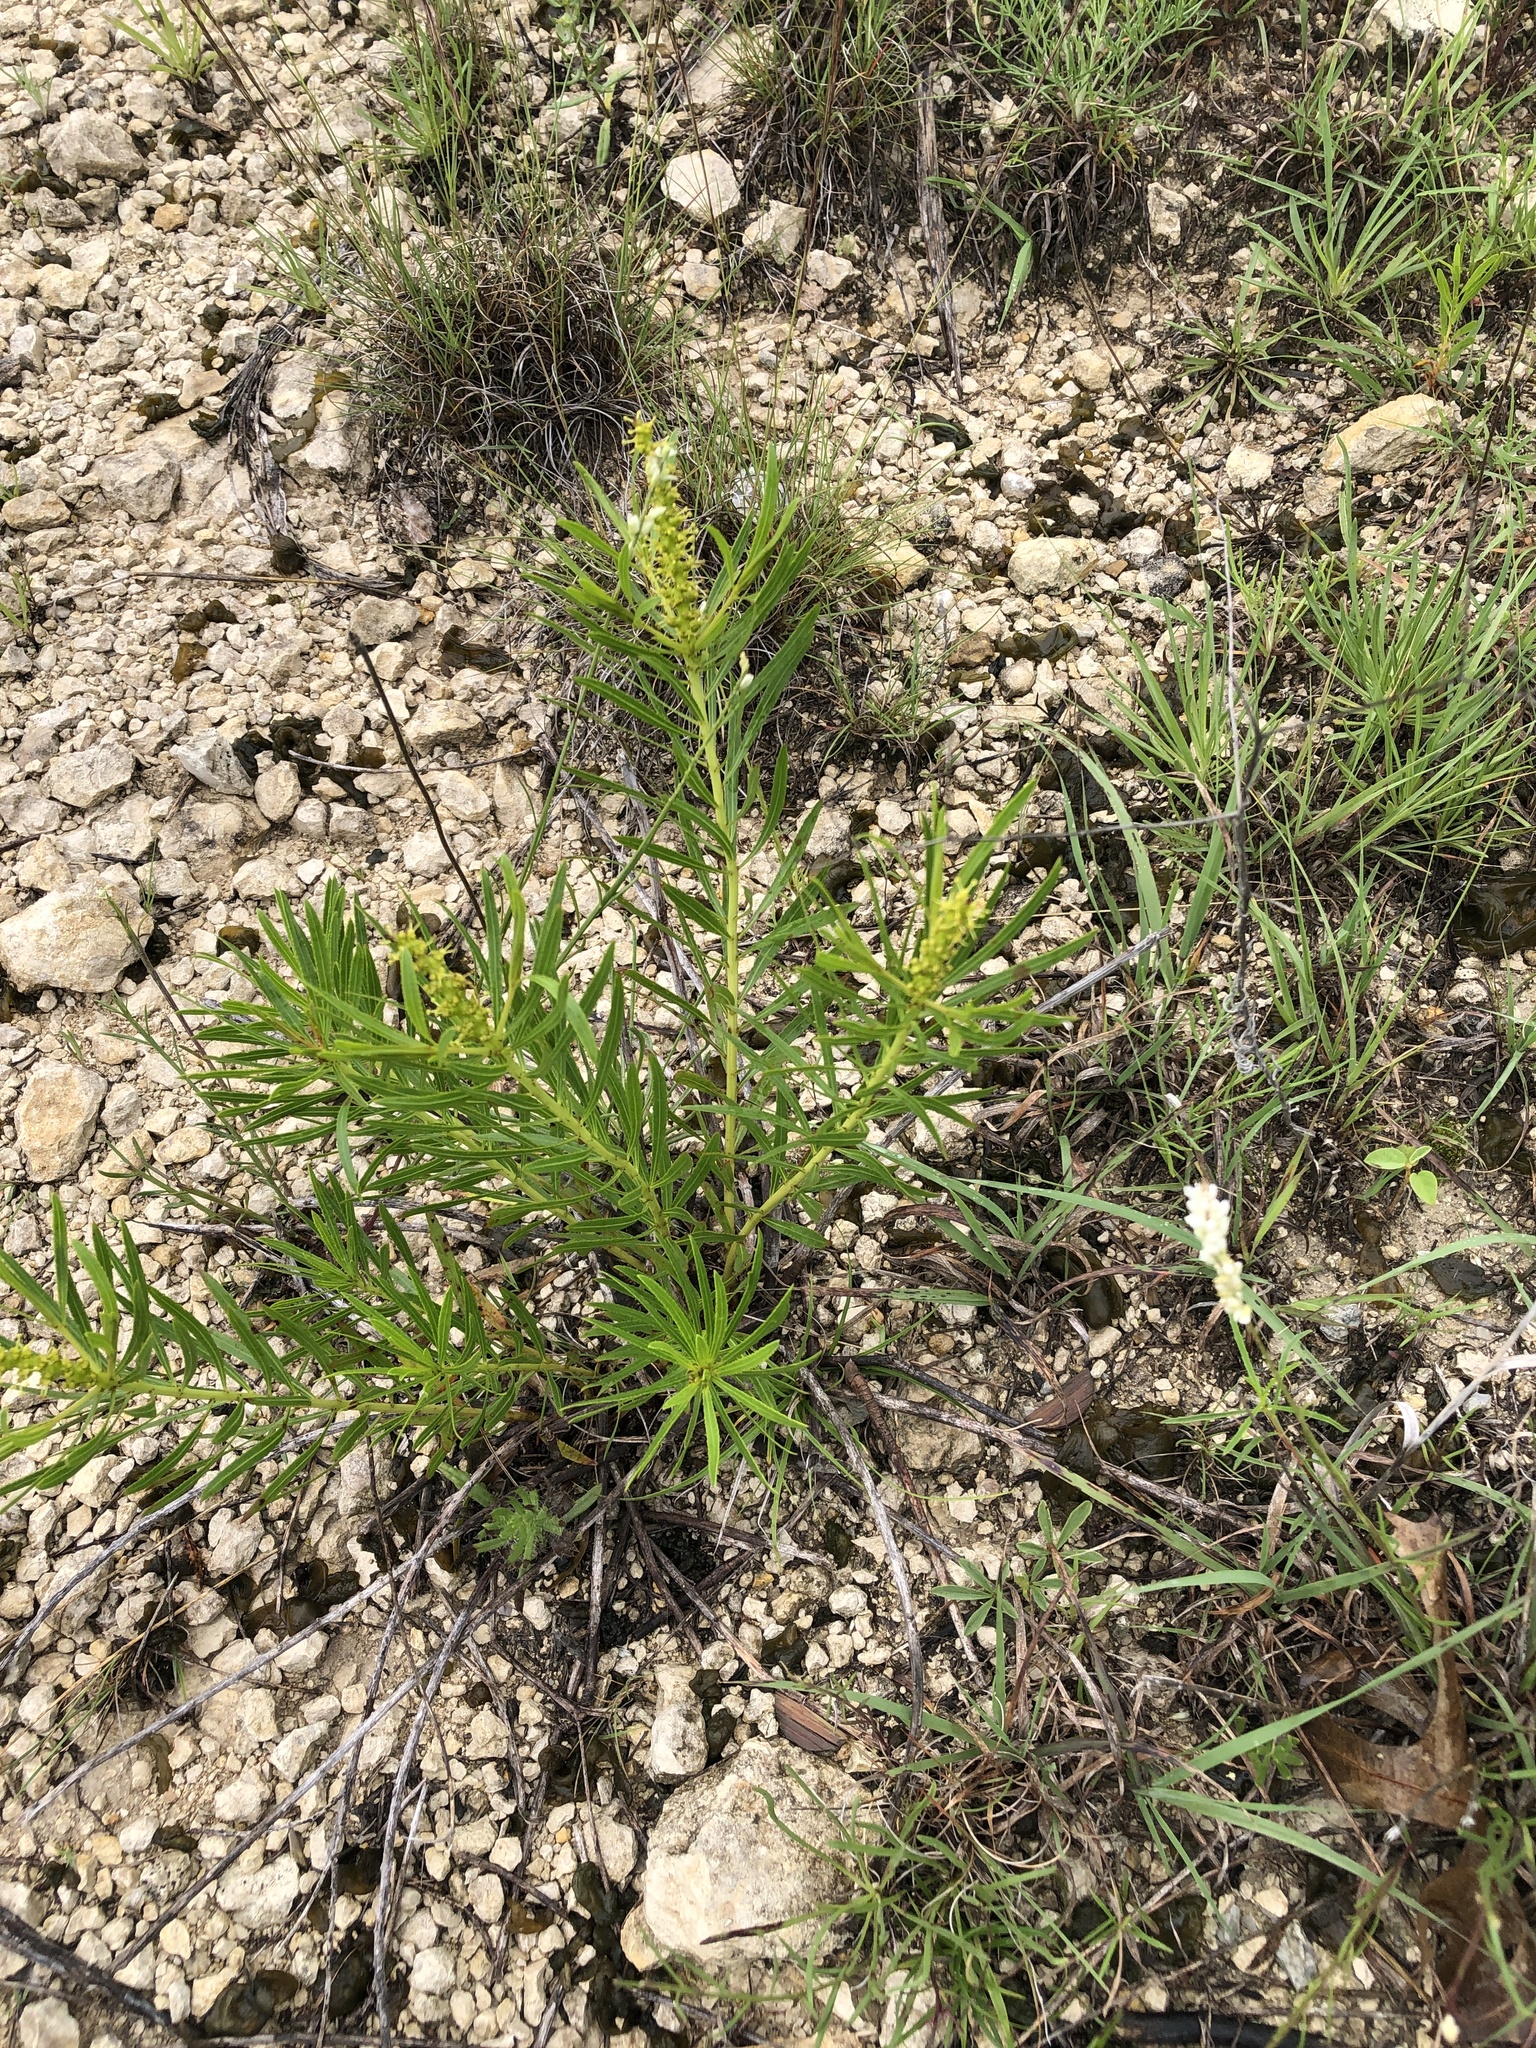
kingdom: Plantae
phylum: Tracheophyta
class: Magnoliopsida
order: Malpighiales
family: Euphorbiaceae
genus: Stillingia
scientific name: Stillingia texana
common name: Texas stillingia
